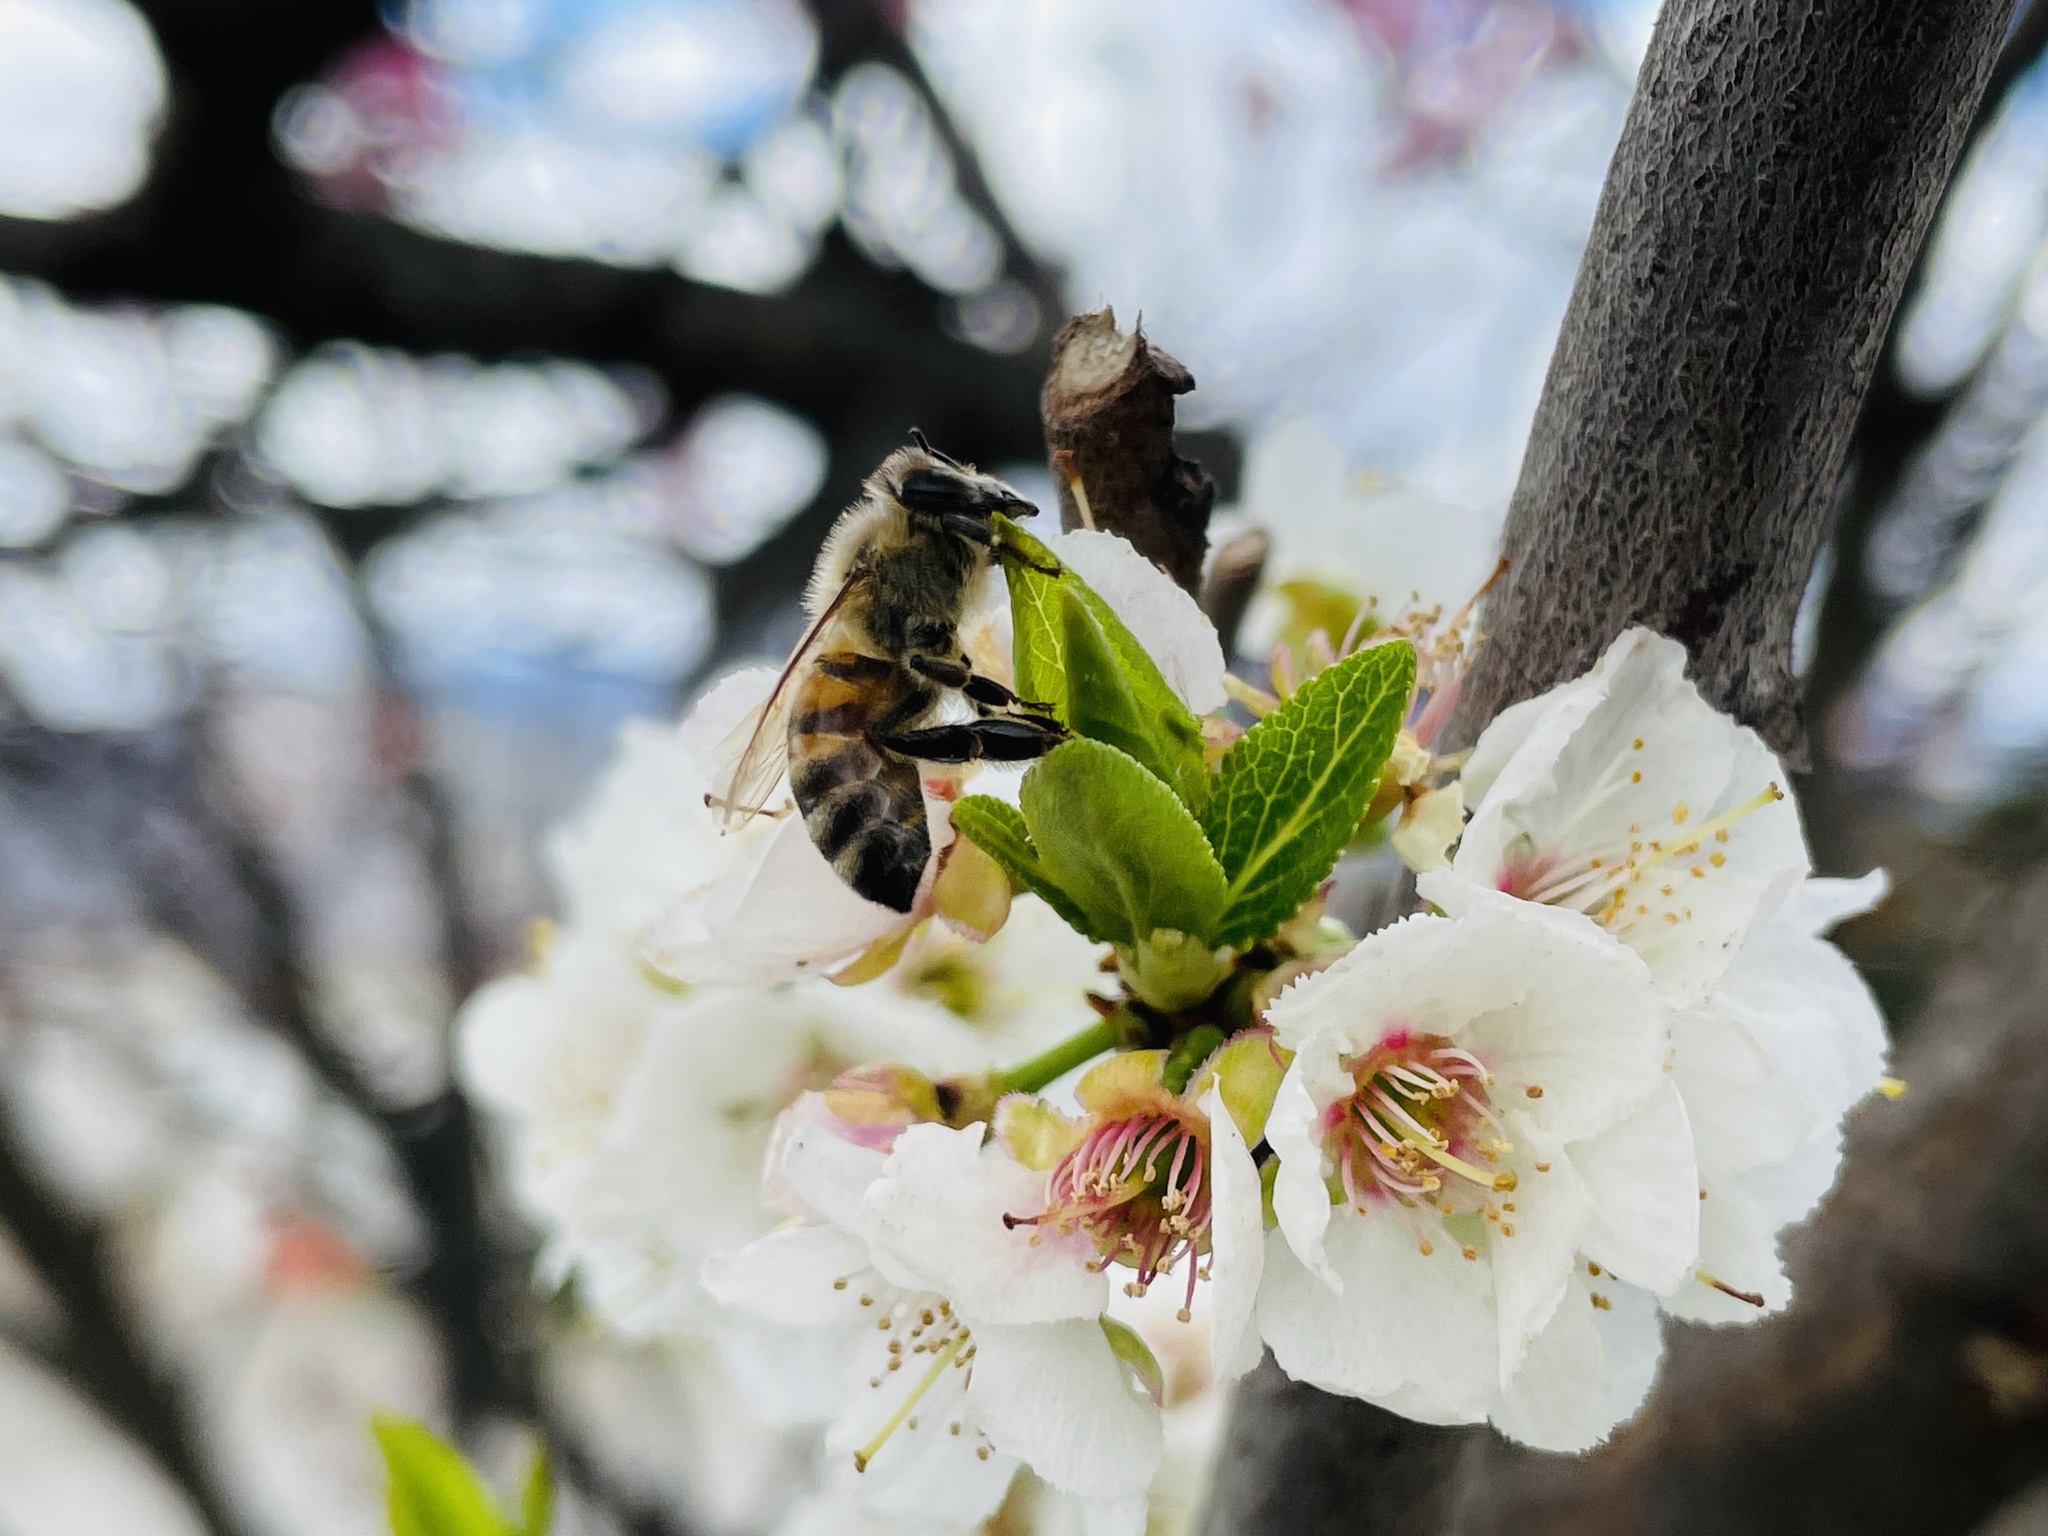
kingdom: Animalia
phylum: Arthropoda
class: Insecta
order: Hymenoptera
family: Apidae
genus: Apis
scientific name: Apis mellifera
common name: Honey bee
